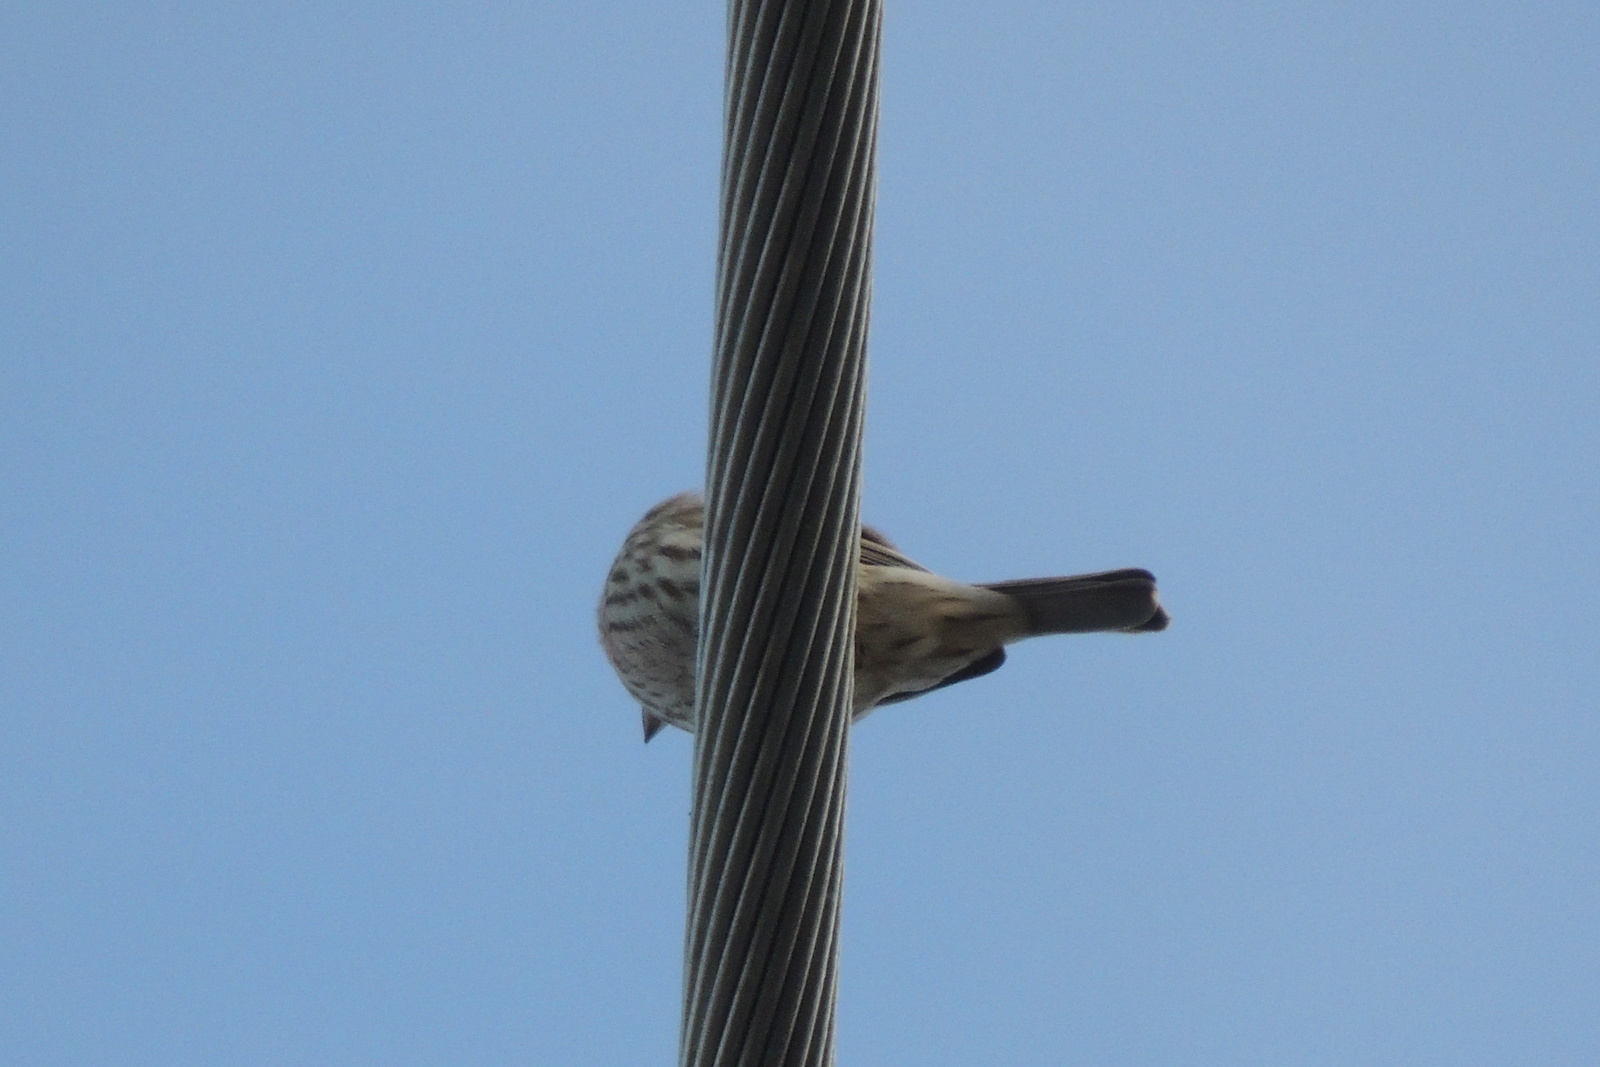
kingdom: Animalia
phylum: Chordata
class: Aves
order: Passeriformes
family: Fringillidae
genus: Haemorhous
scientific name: Haemorhous mexicanus
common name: House finch
